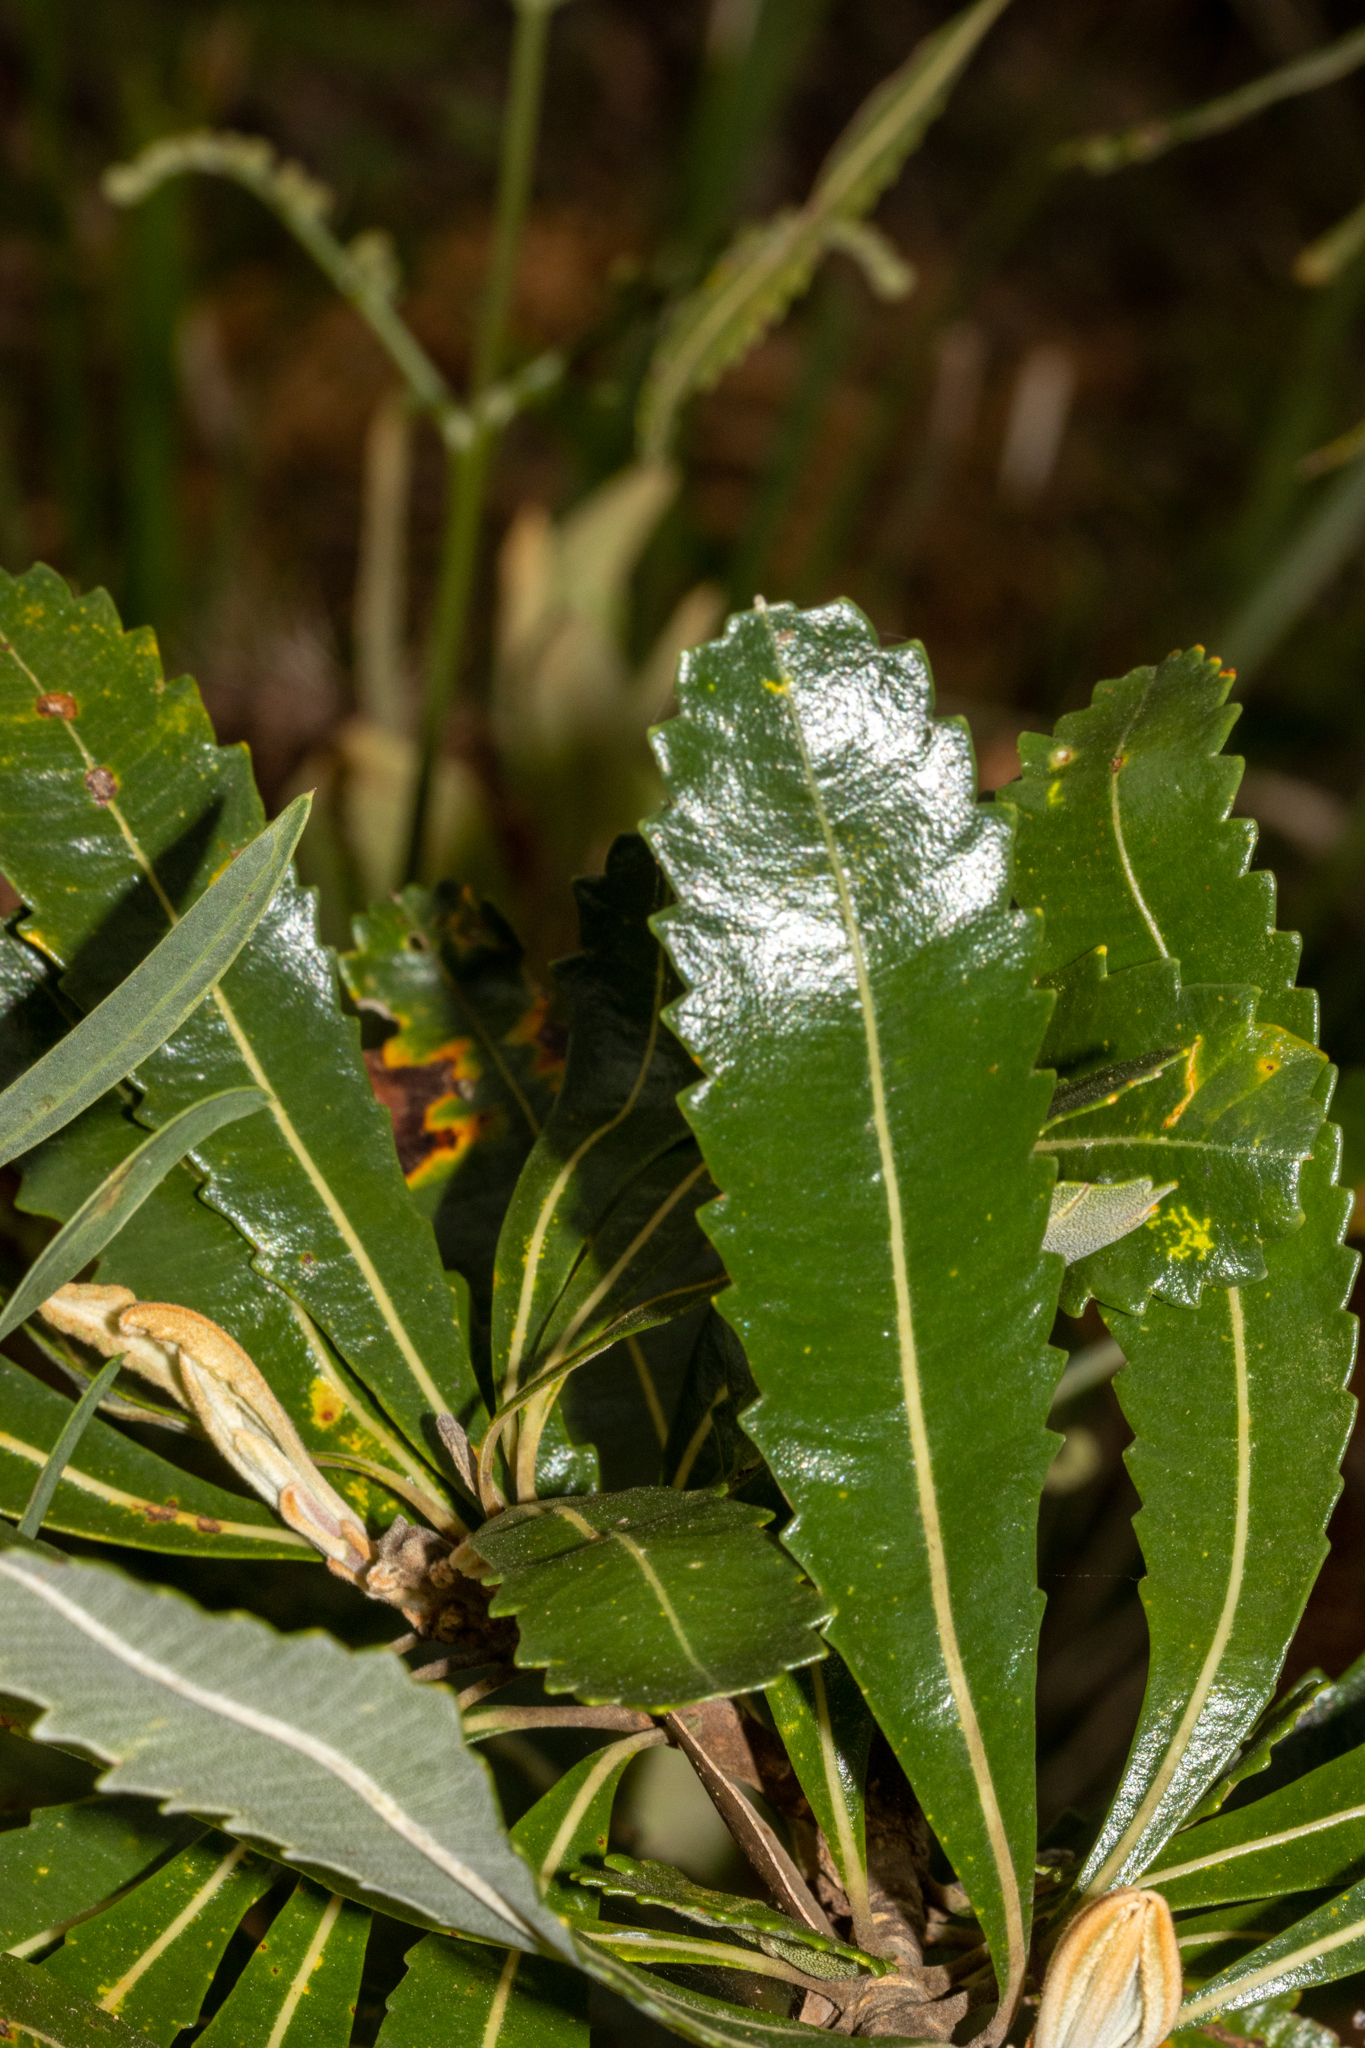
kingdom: Plantae
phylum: Tracheophyta
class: Magnoliopsida
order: Proteales
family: Proteaceae
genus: Banksia
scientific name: Banksia serrata
